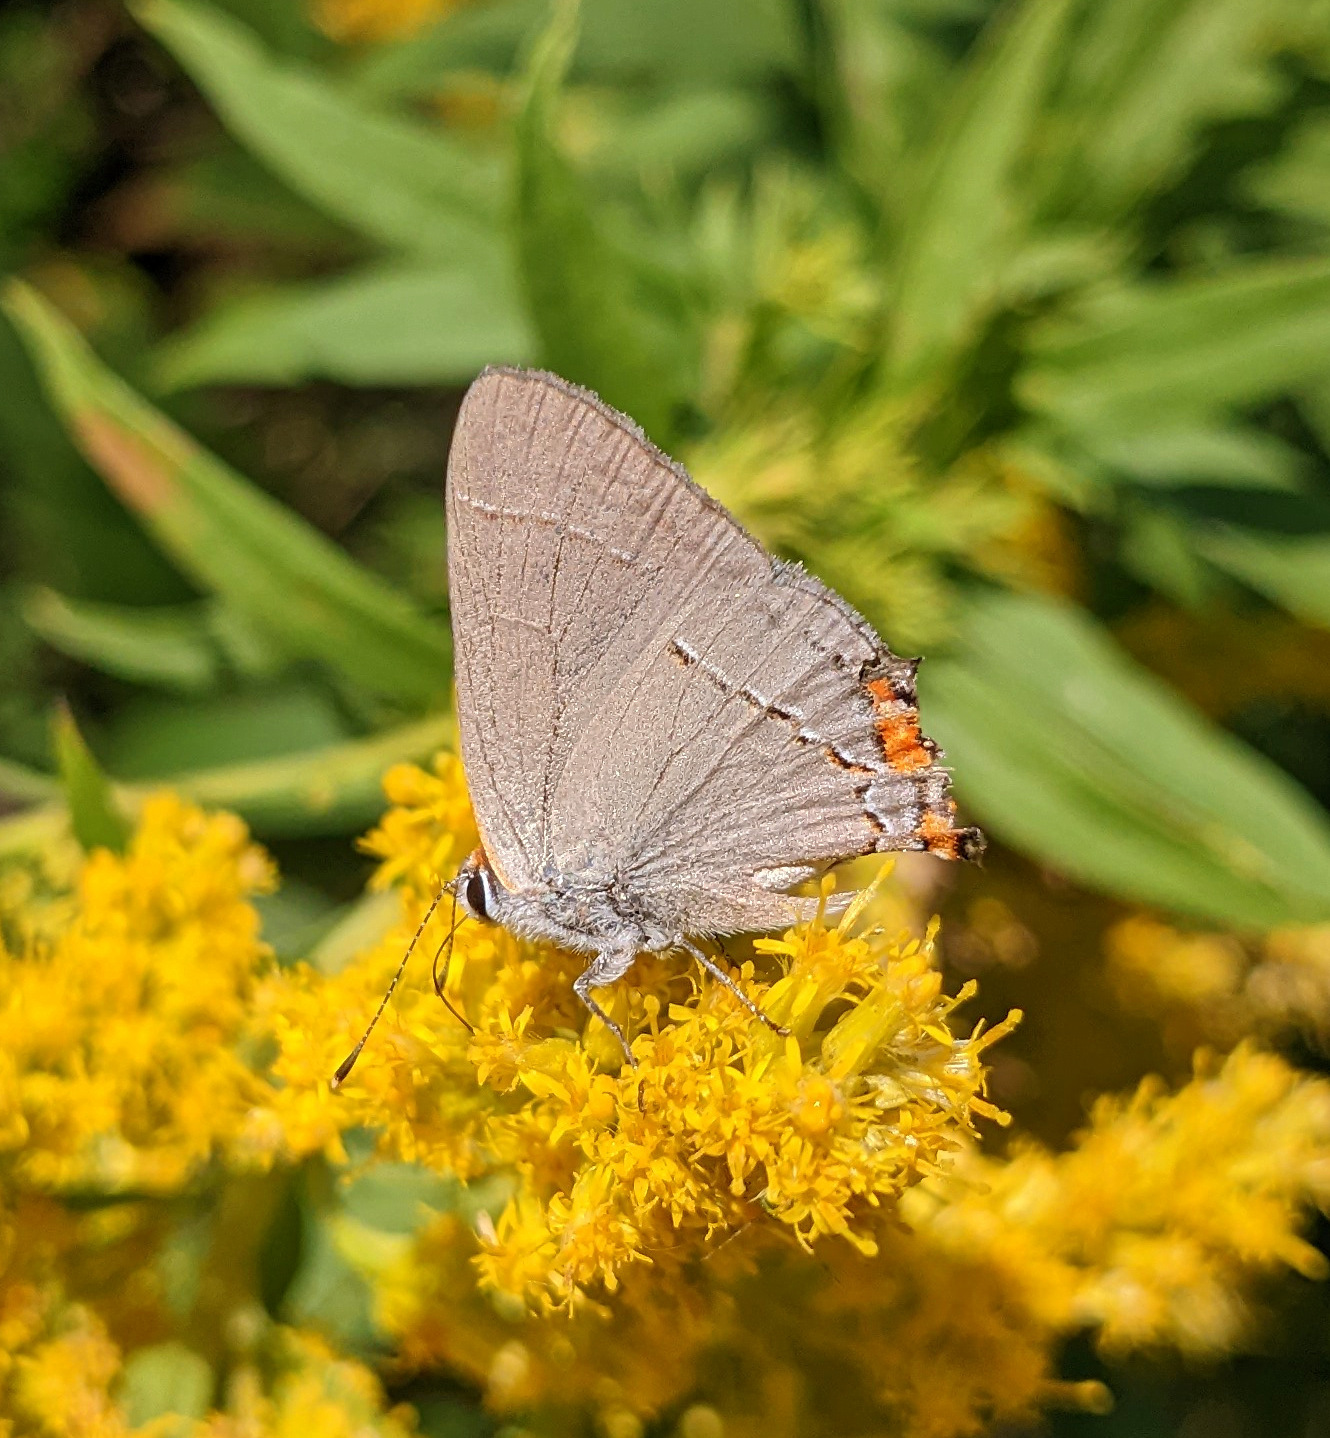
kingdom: Animalia
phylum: Arthropoda
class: Insecta
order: Lepidoptera
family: Lycaenidae
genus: Strymon
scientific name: Strymon melinus
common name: Gray hairstreak
